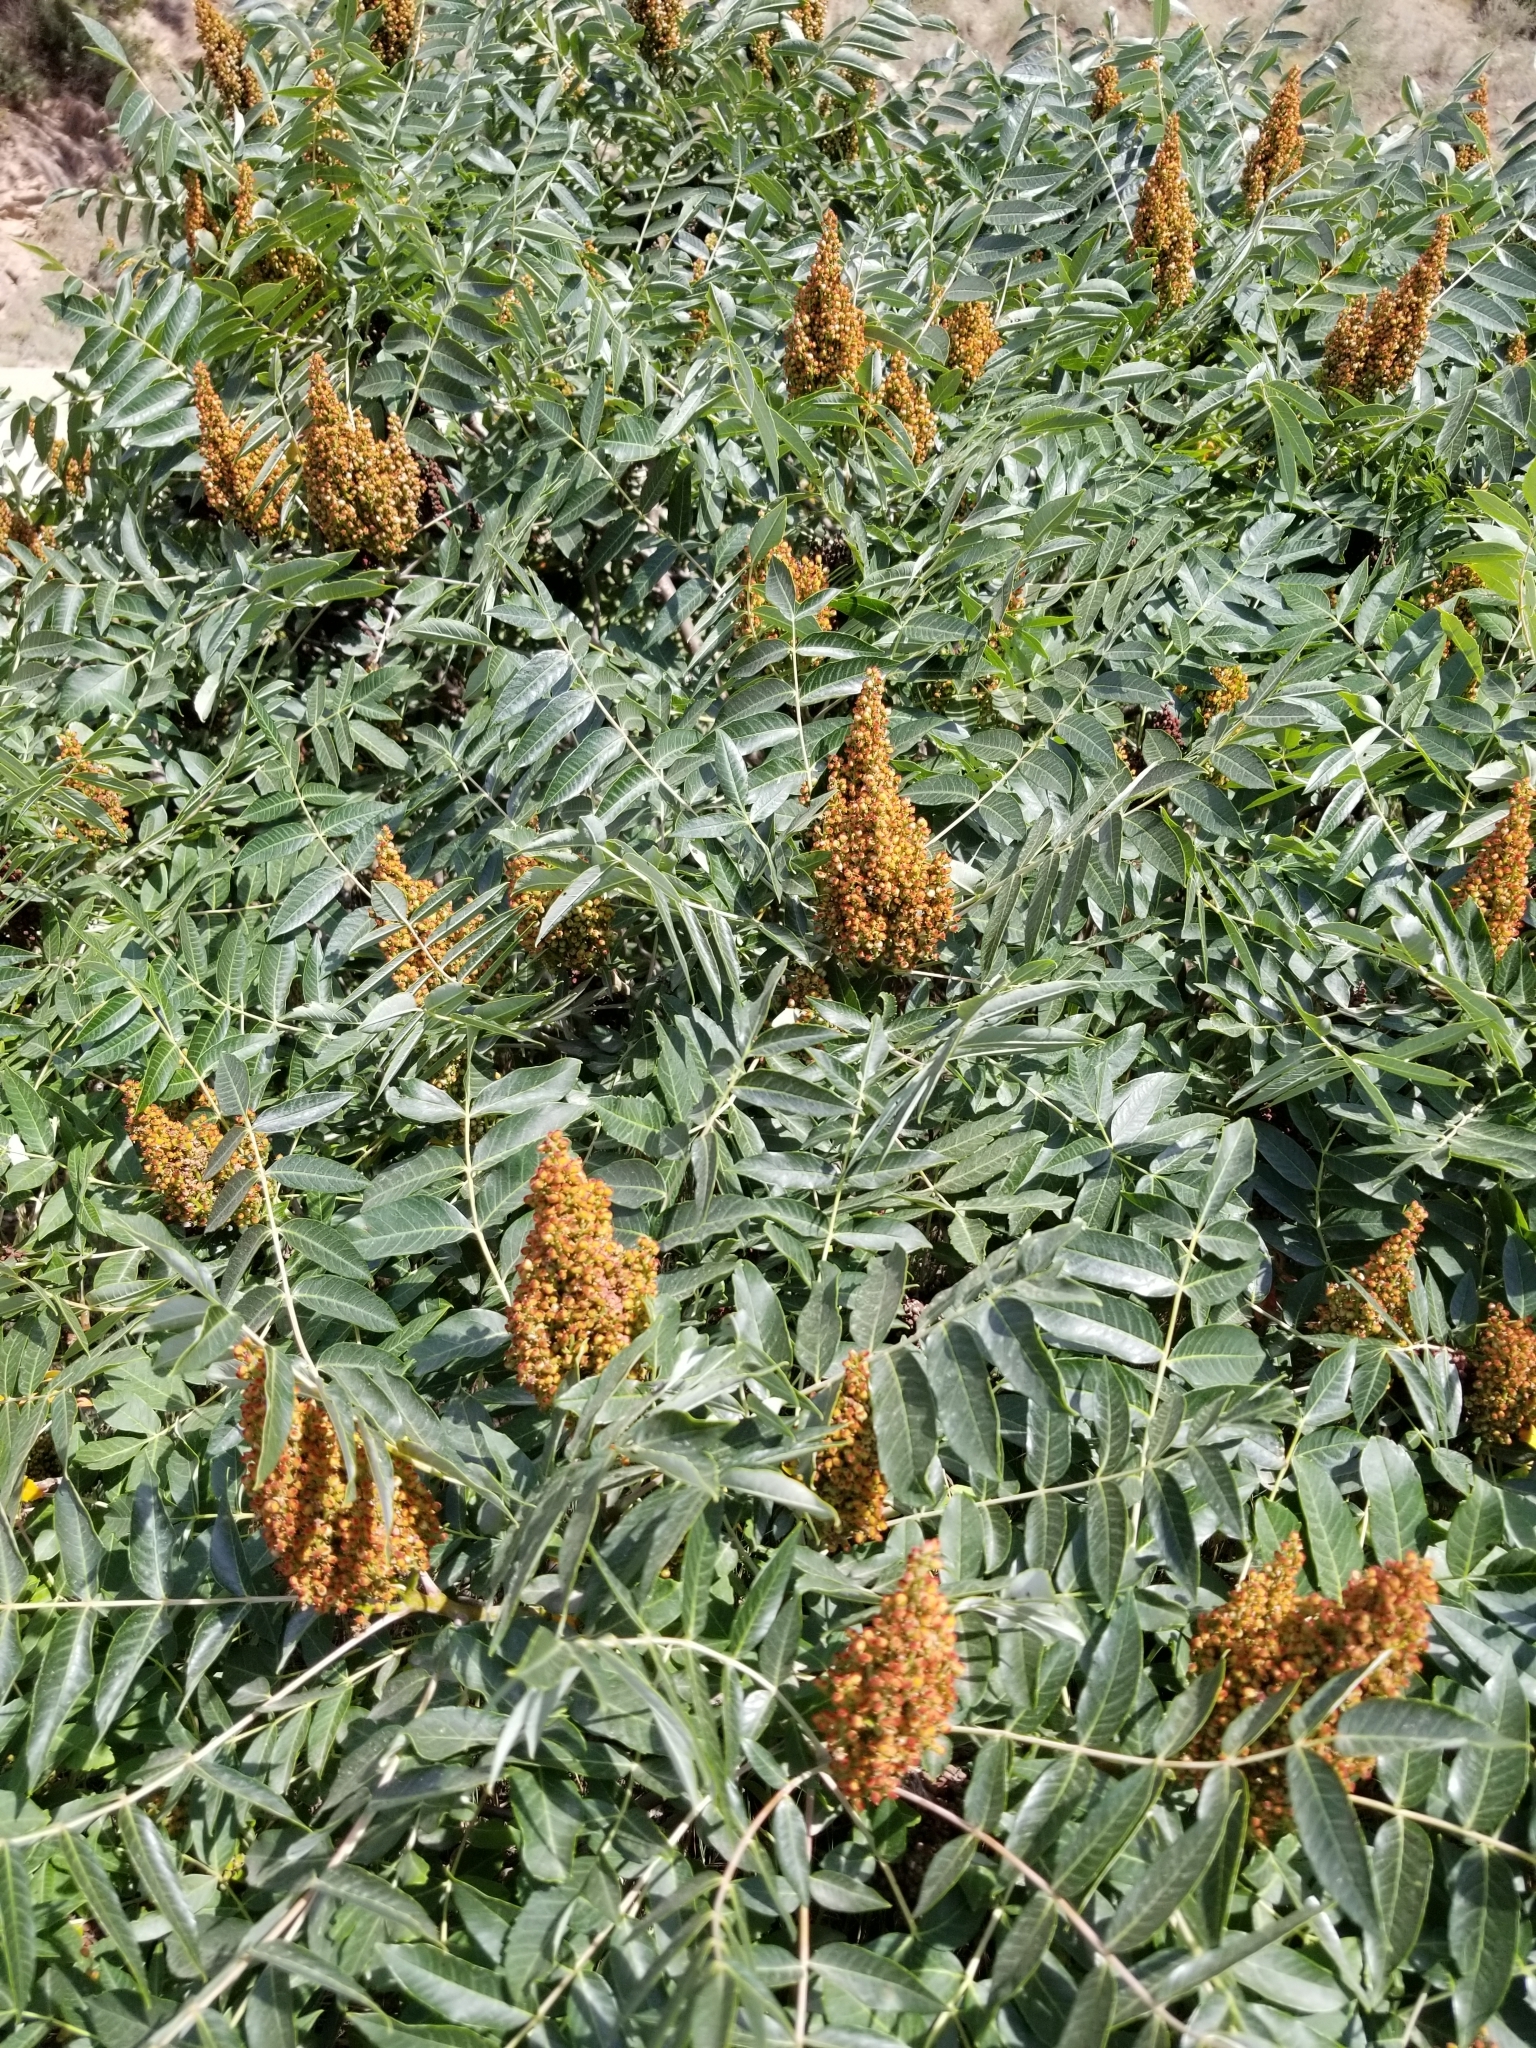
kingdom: Plantae
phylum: Tracheophyta
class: Magnoliopsida
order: Sapindales
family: Anacardiaceae
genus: Rhus
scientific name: Rhus glabra
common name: Scarlet sumac
